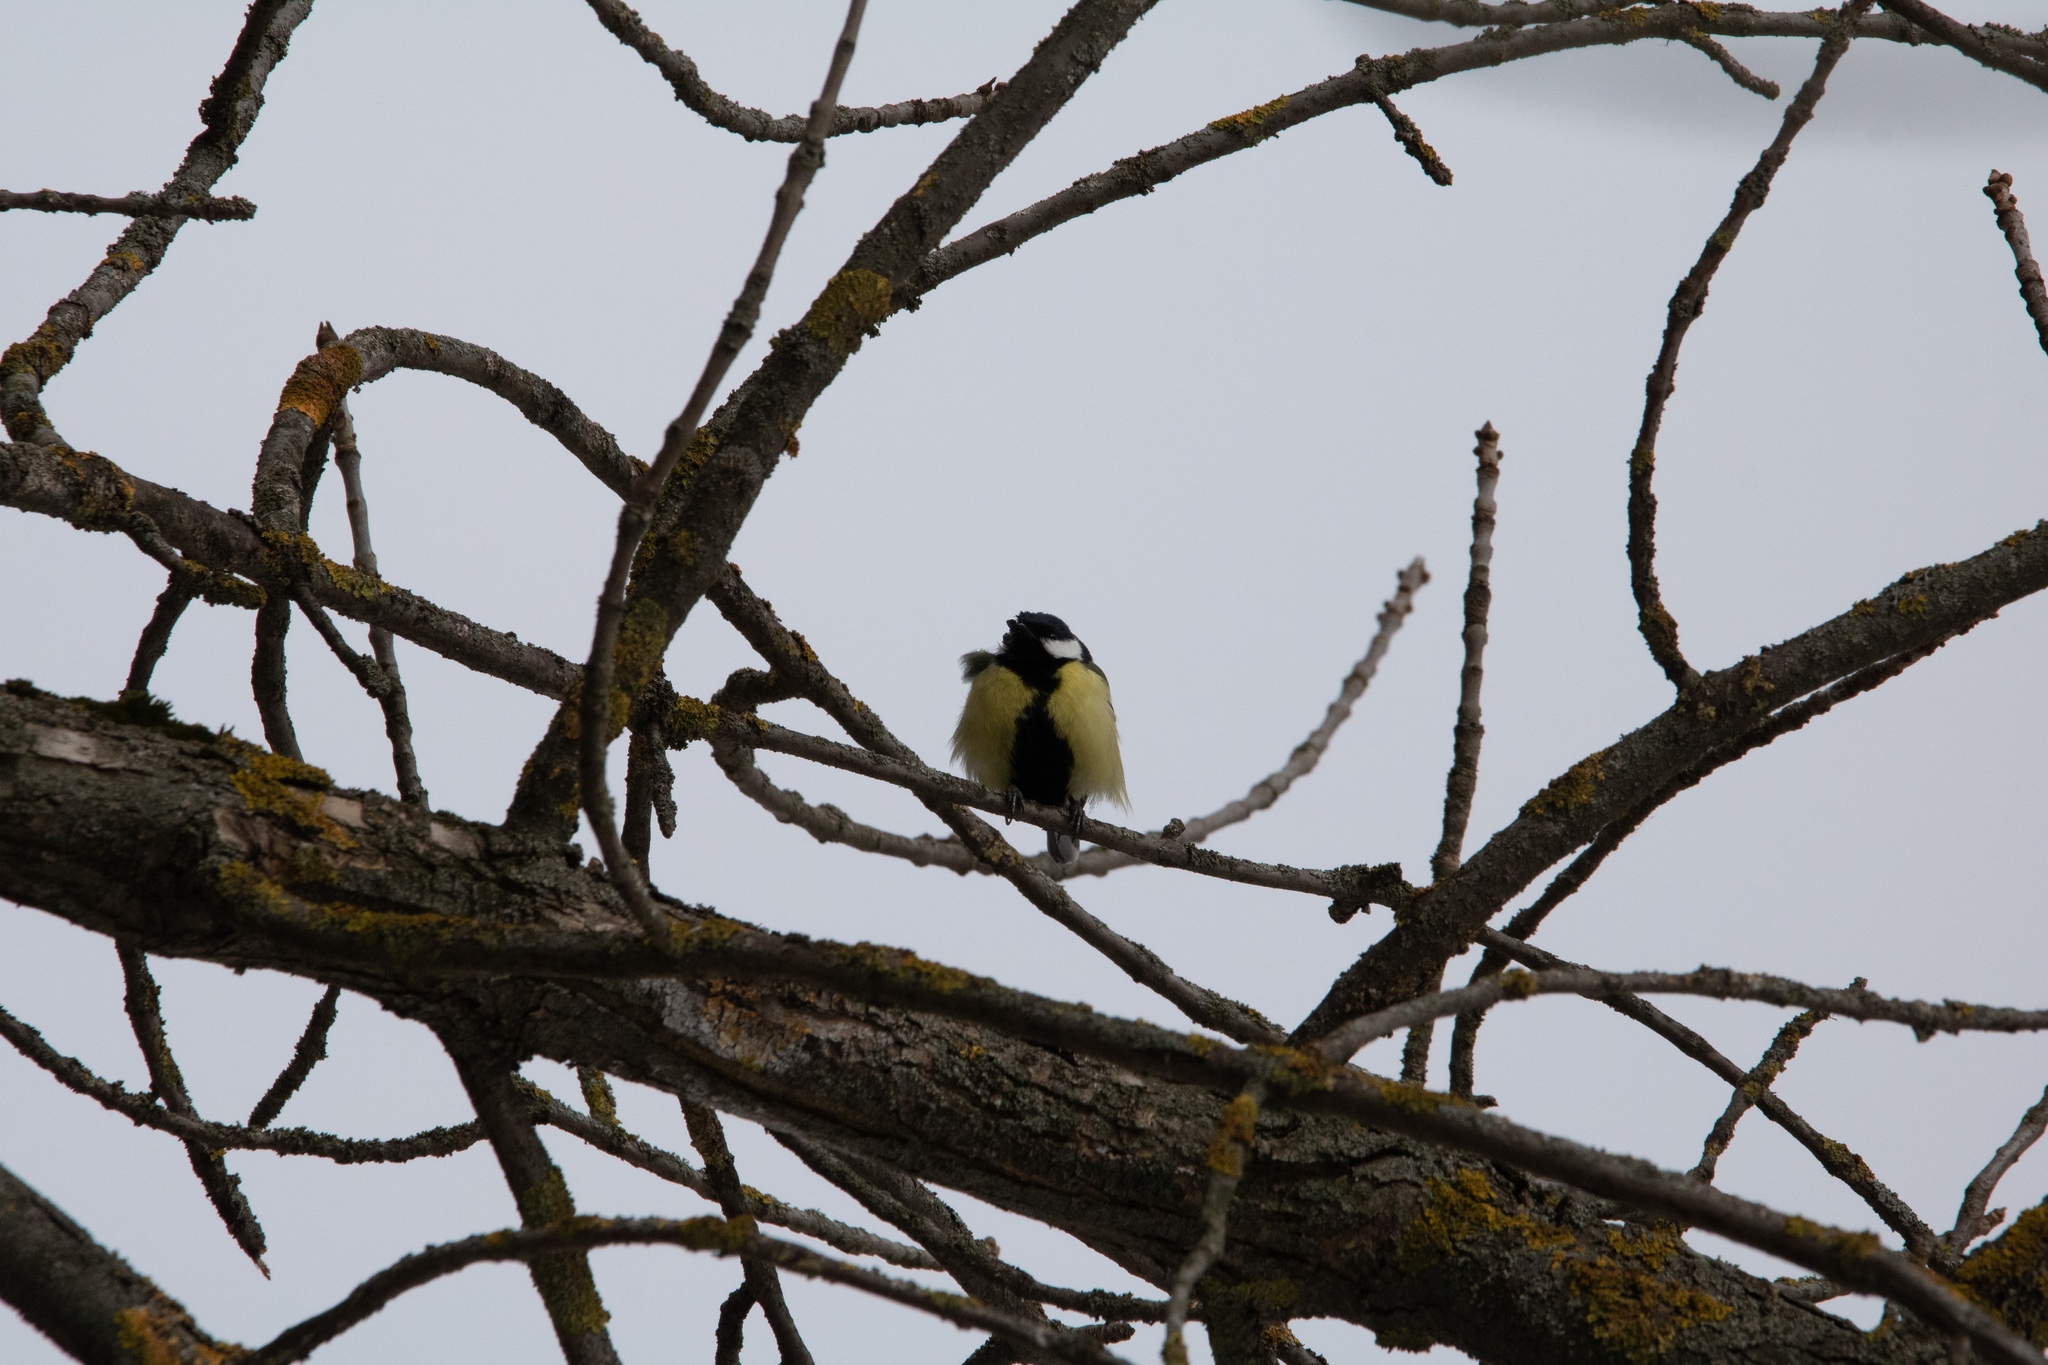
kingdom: Animalia
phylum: Chordata
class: Aves
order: Passeriformes
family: Paridae
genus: Parus
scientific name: Parus major
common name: Great tit
